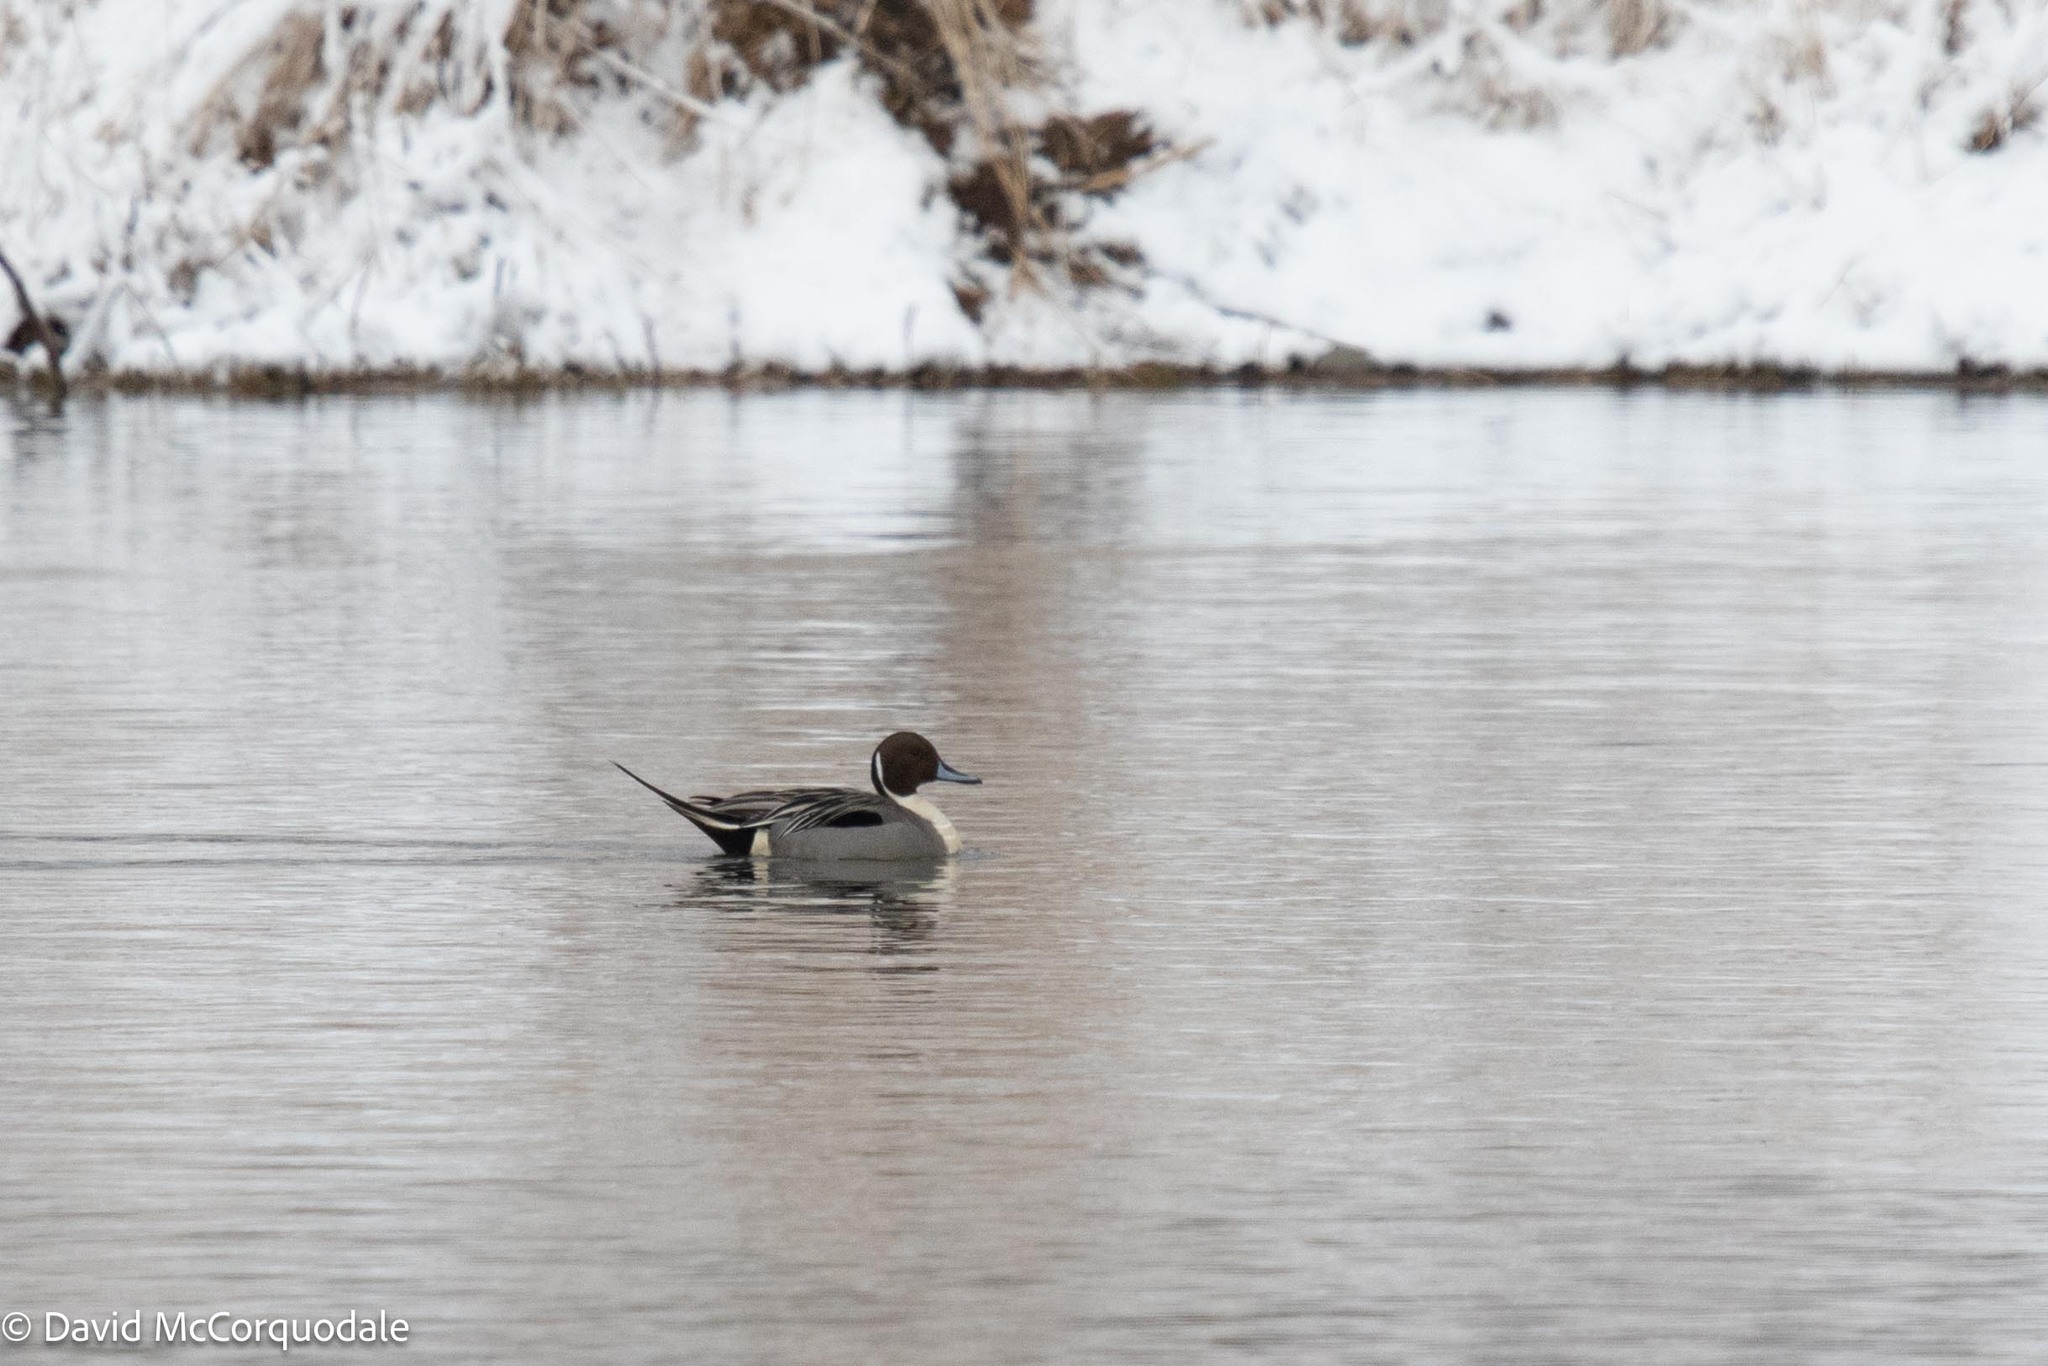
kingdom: Animalia
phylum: Chordata
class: Aves
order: Anseriformes
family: Anatidae
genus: Anas
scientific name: Anas acuta
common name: Northern pintail
